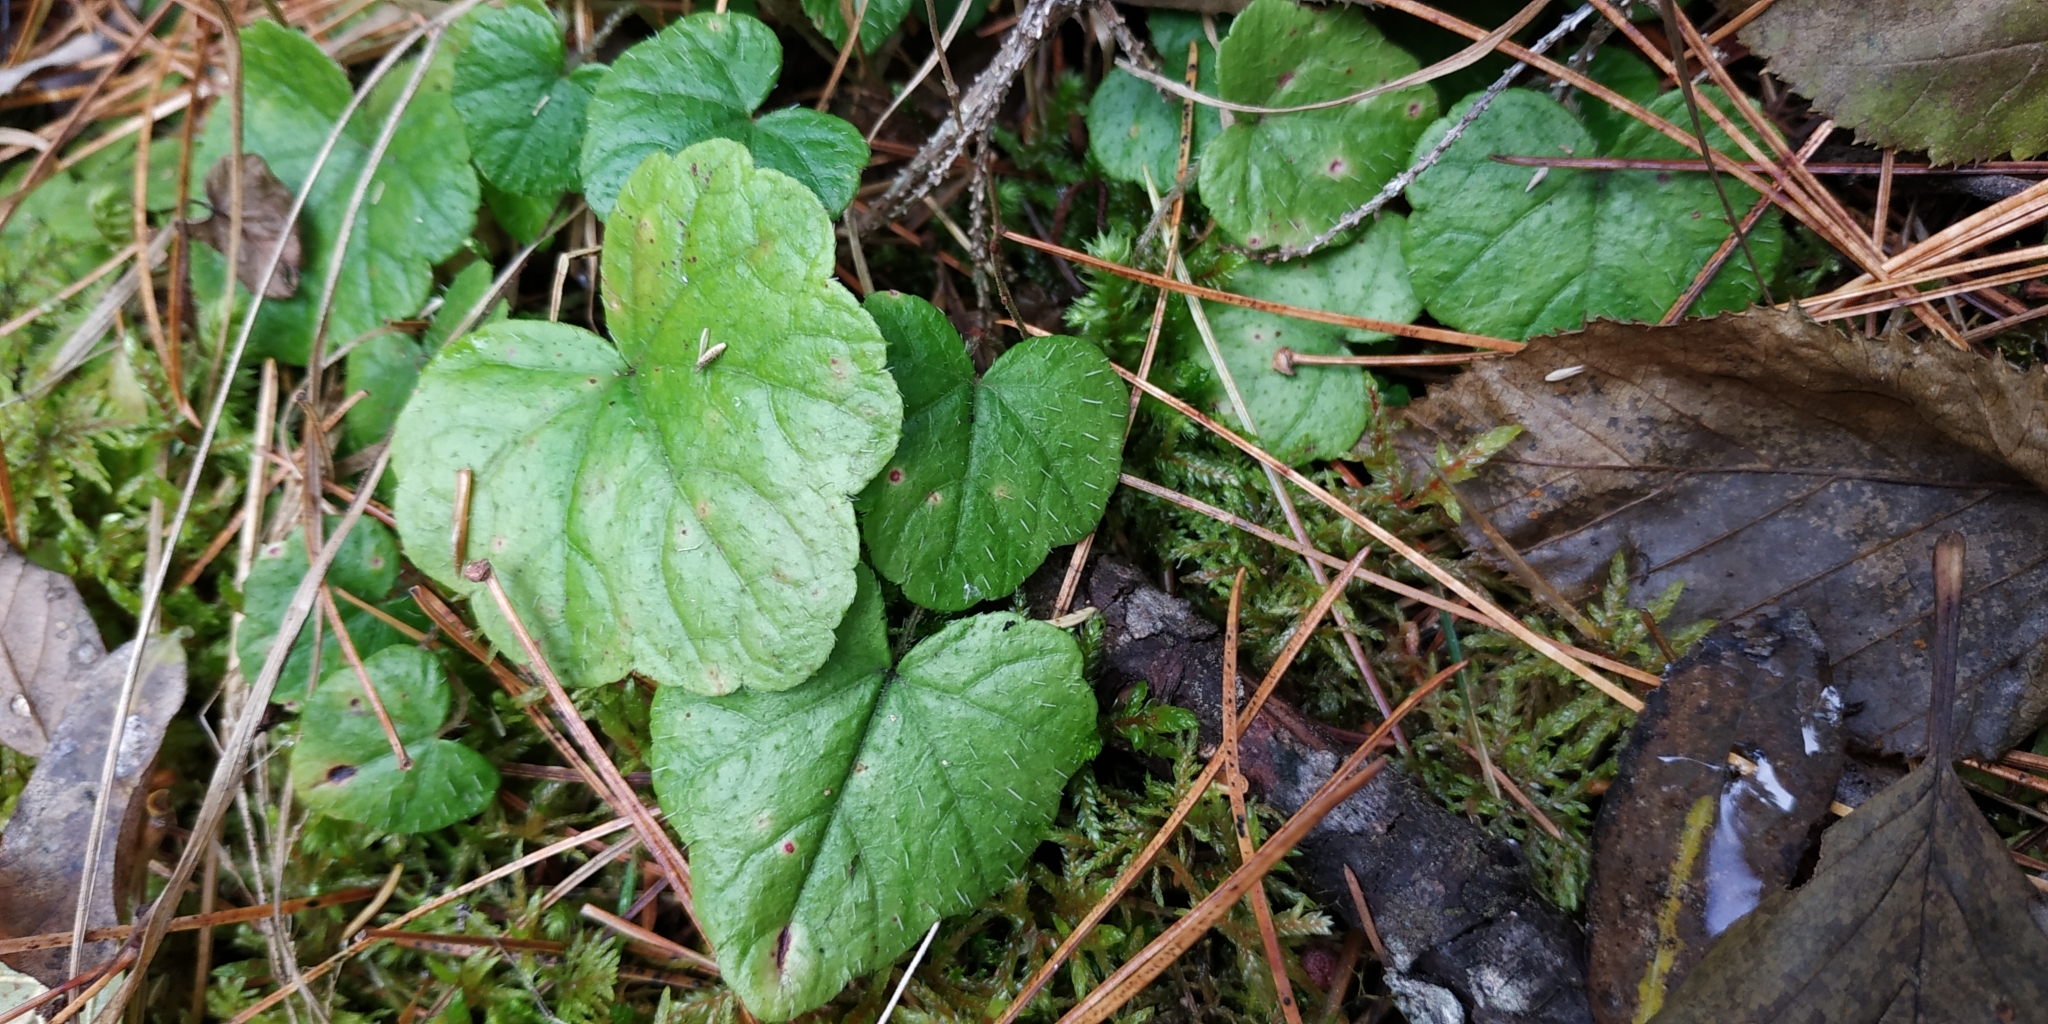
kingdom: Plantae
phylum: Tracheophyta
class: Magnoliopsida
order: Saxifragales
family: Saxifragaceae
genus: Mitella
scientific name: Mitella nuda
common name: Bare-stemmed bishop's-cap
